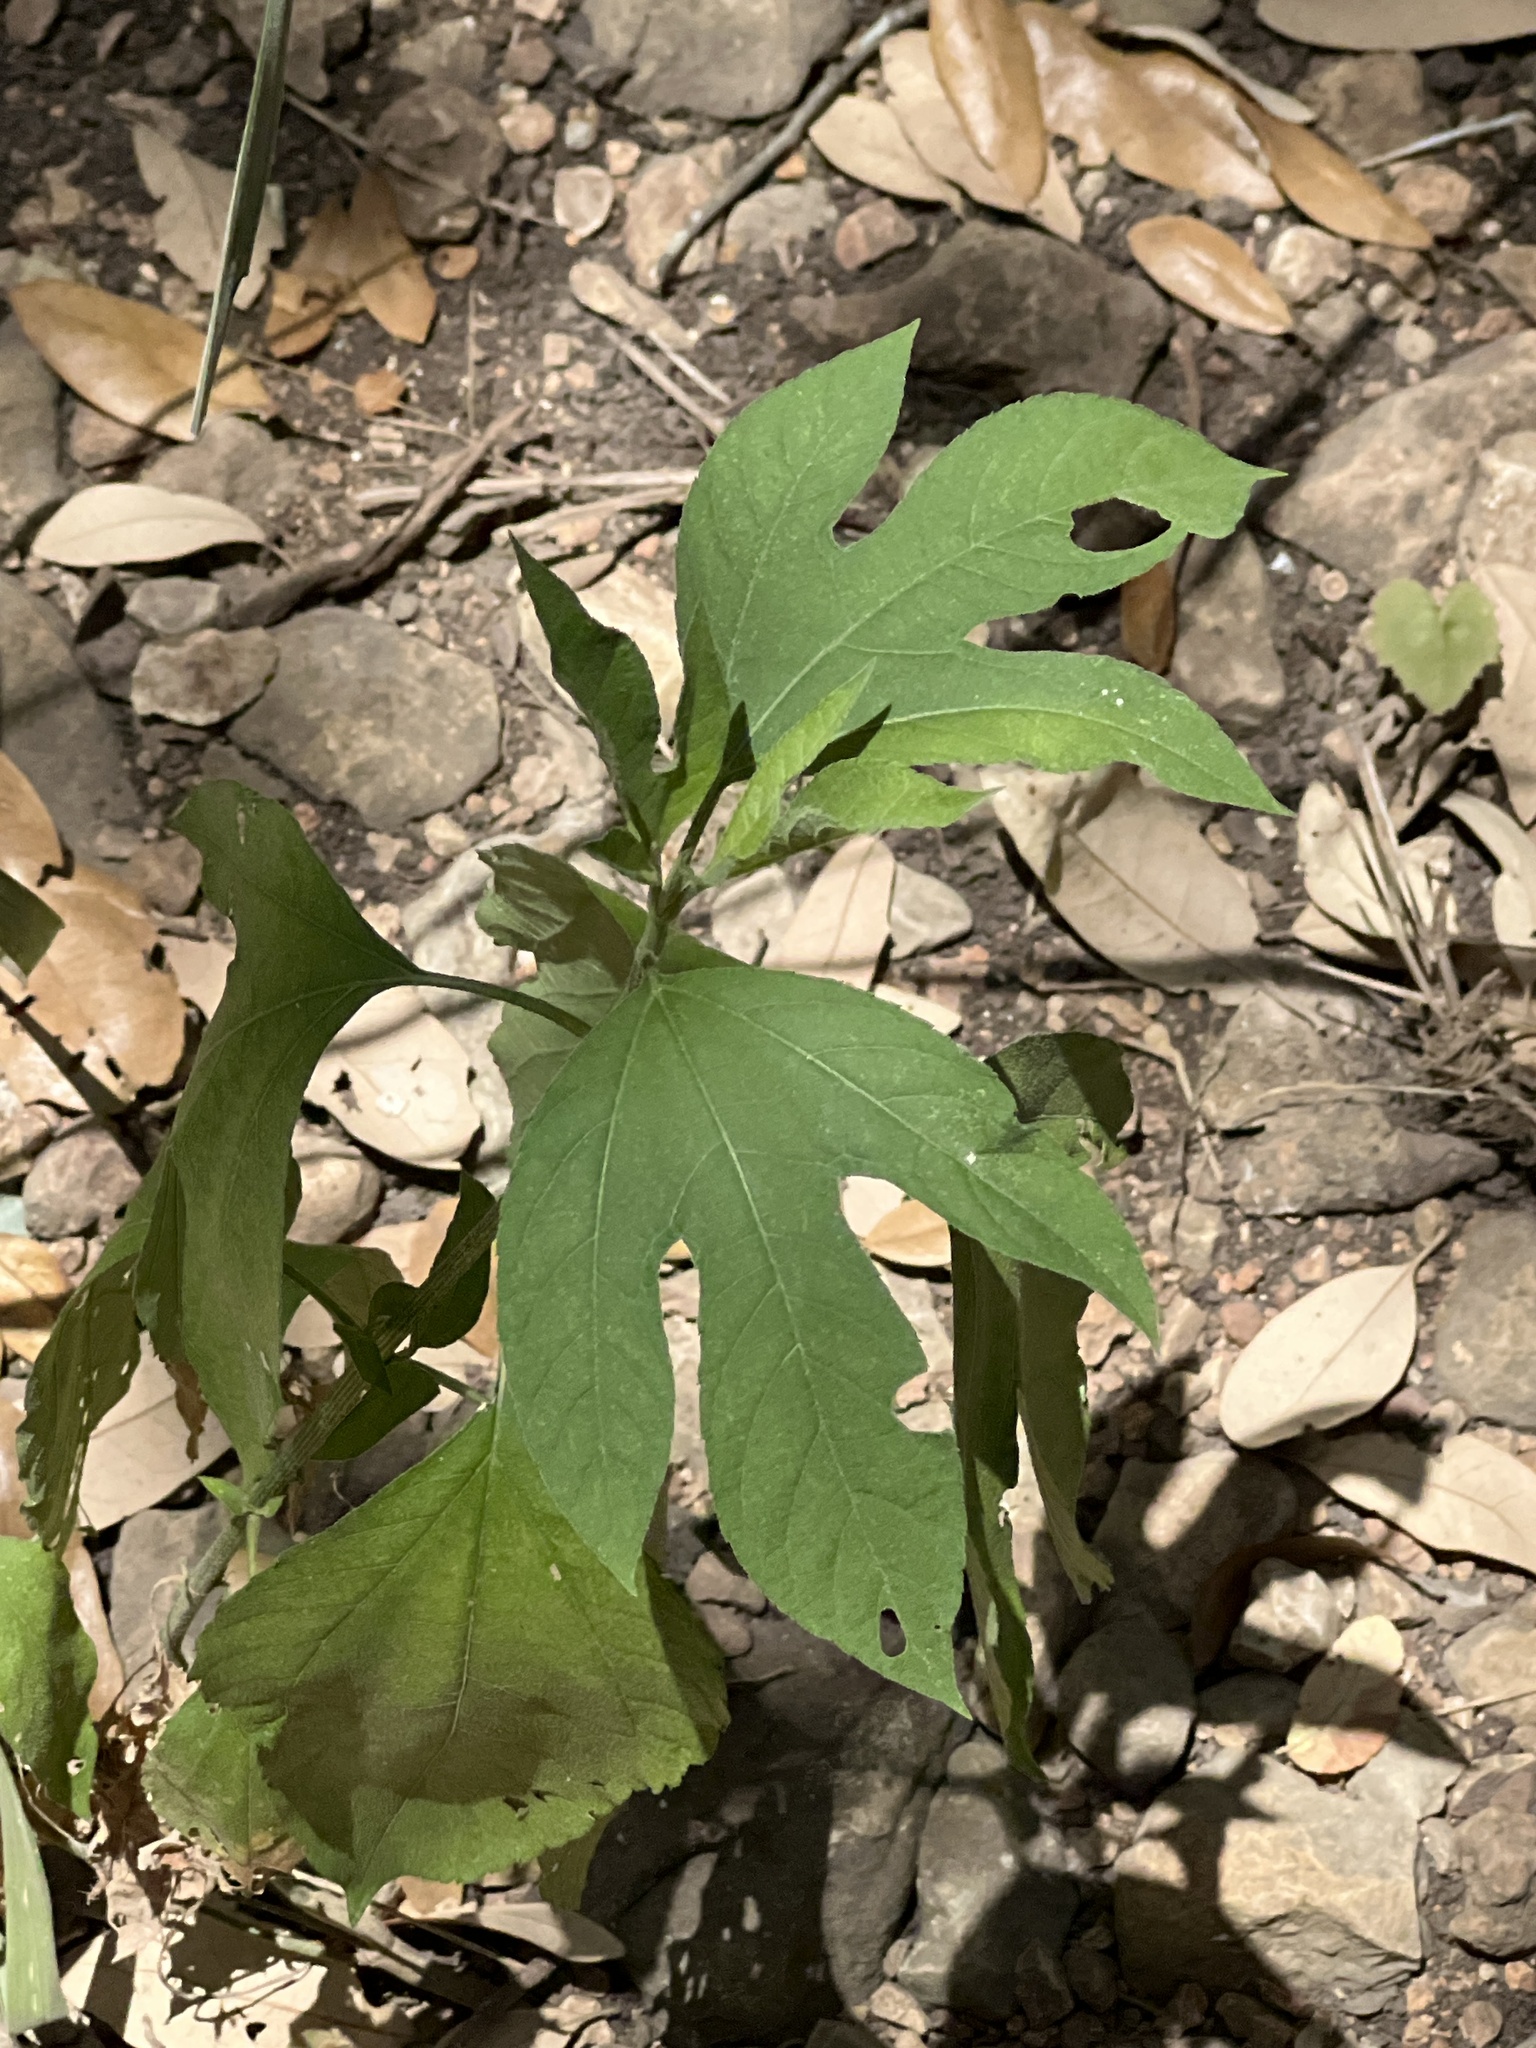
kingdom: Plantae
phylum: Tracheophyta
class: Magnoliopsida
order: Asterales
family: Asteraceae
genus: Ambrosia
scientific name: Ambrosia trifida
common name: Giant ragweed
